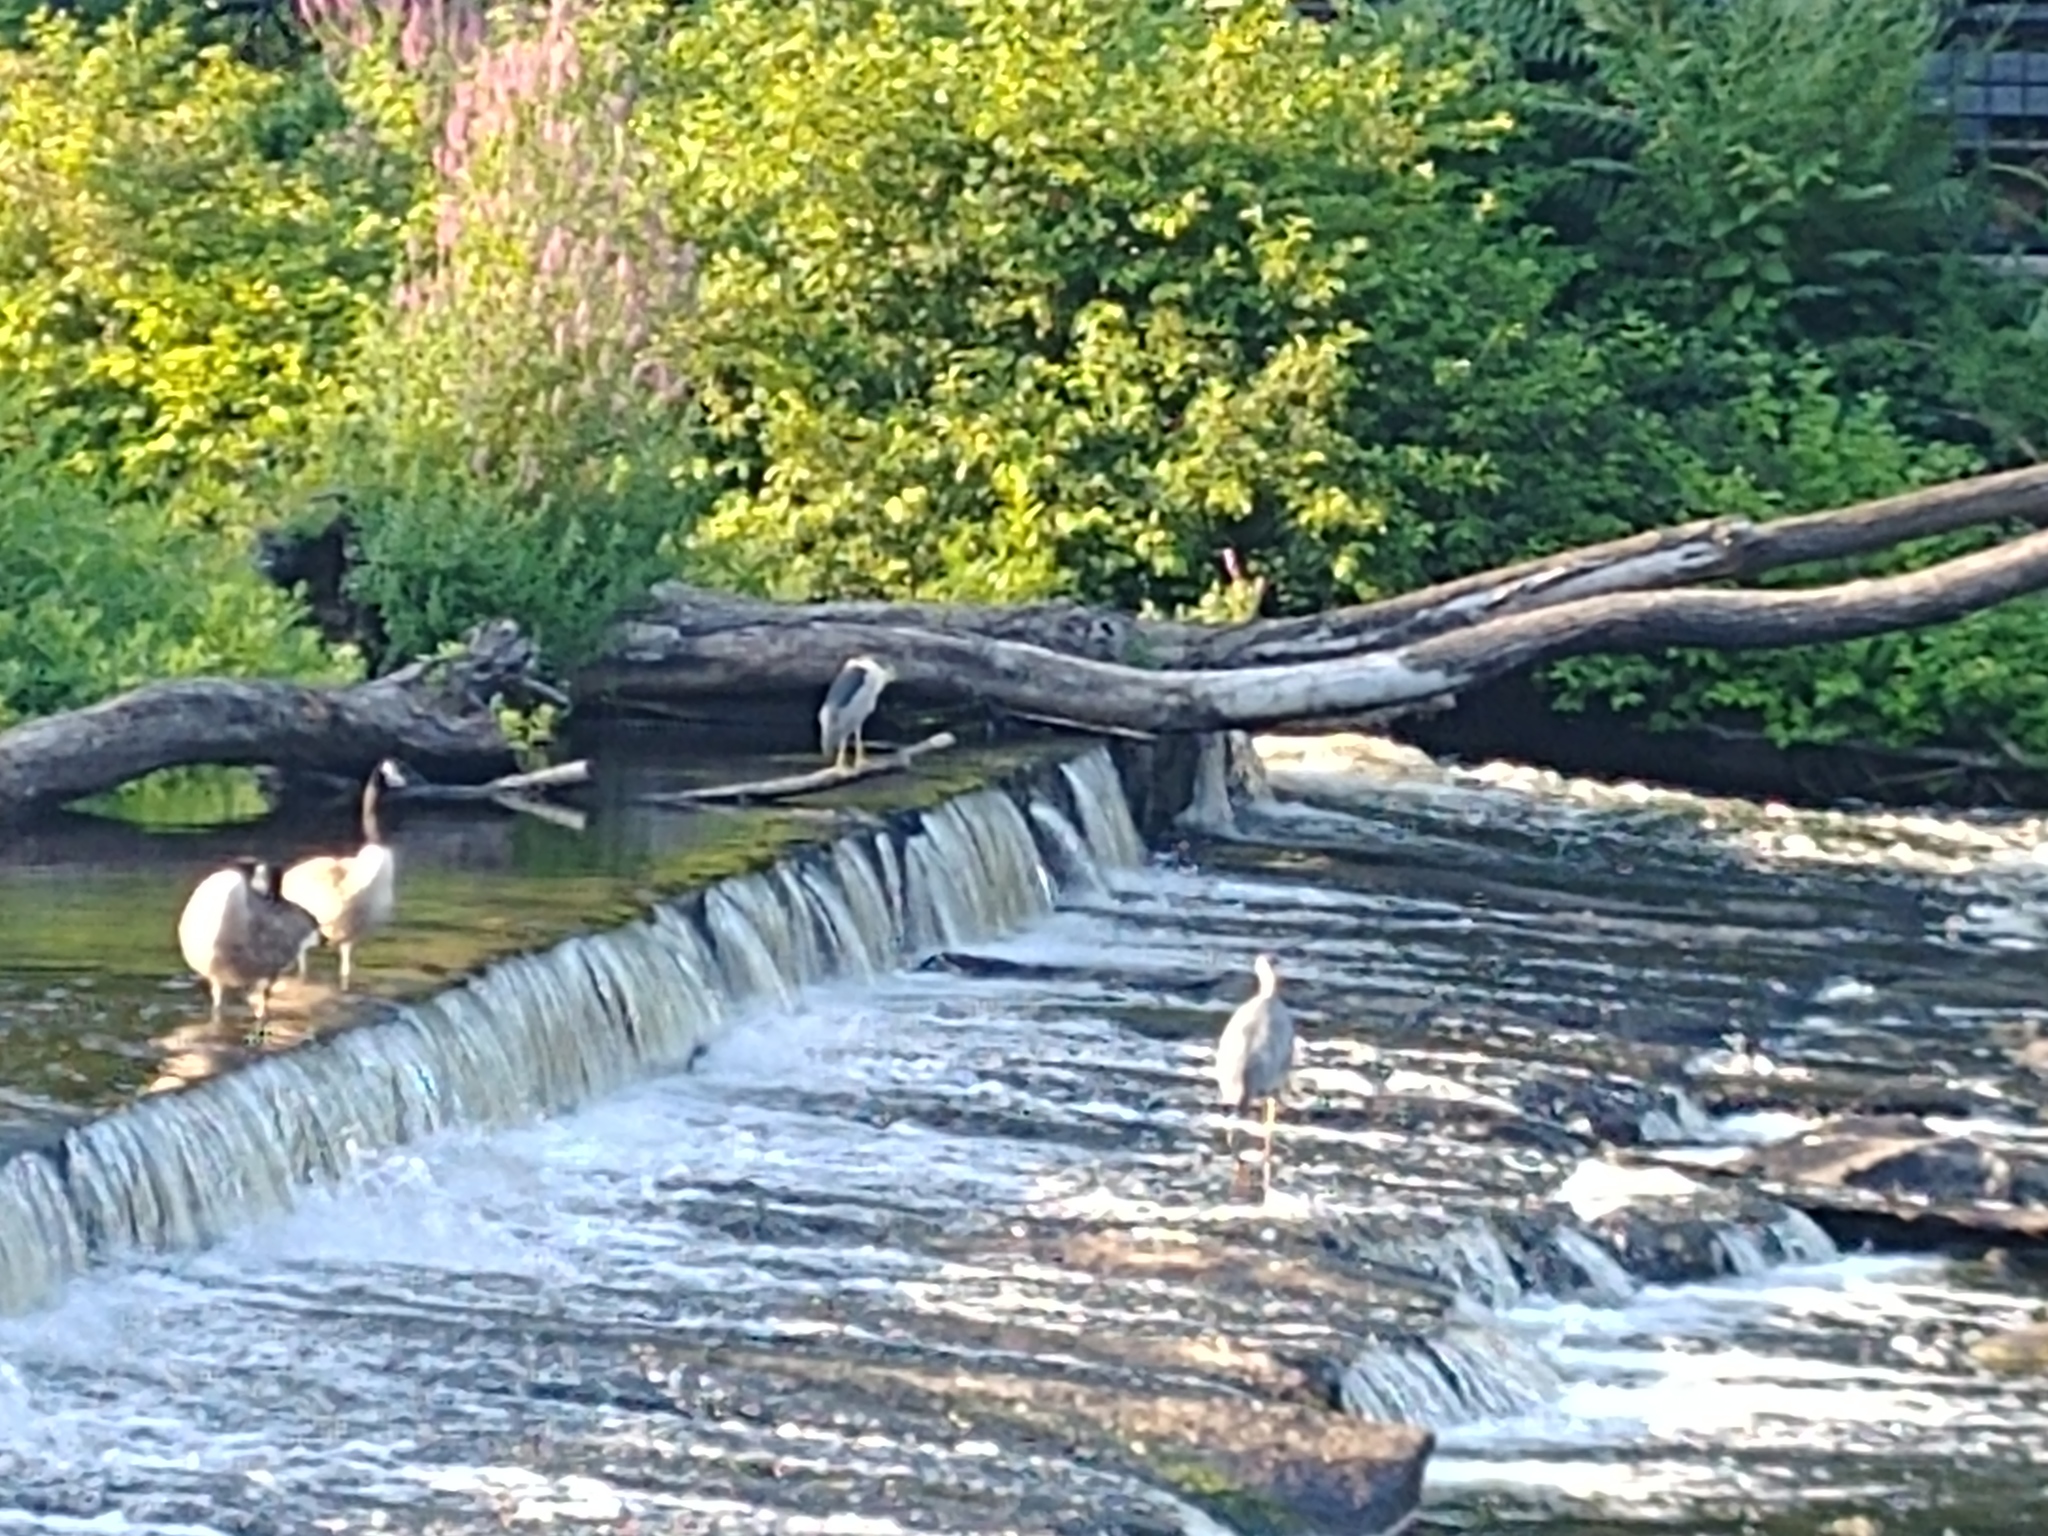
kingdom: Animalia
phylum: Chordata
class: Aves
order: Pelecaniformes
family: Ardeidae
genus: Nycticorax
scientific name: Nycticorax nycticorax
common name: Black-crowned night heron
